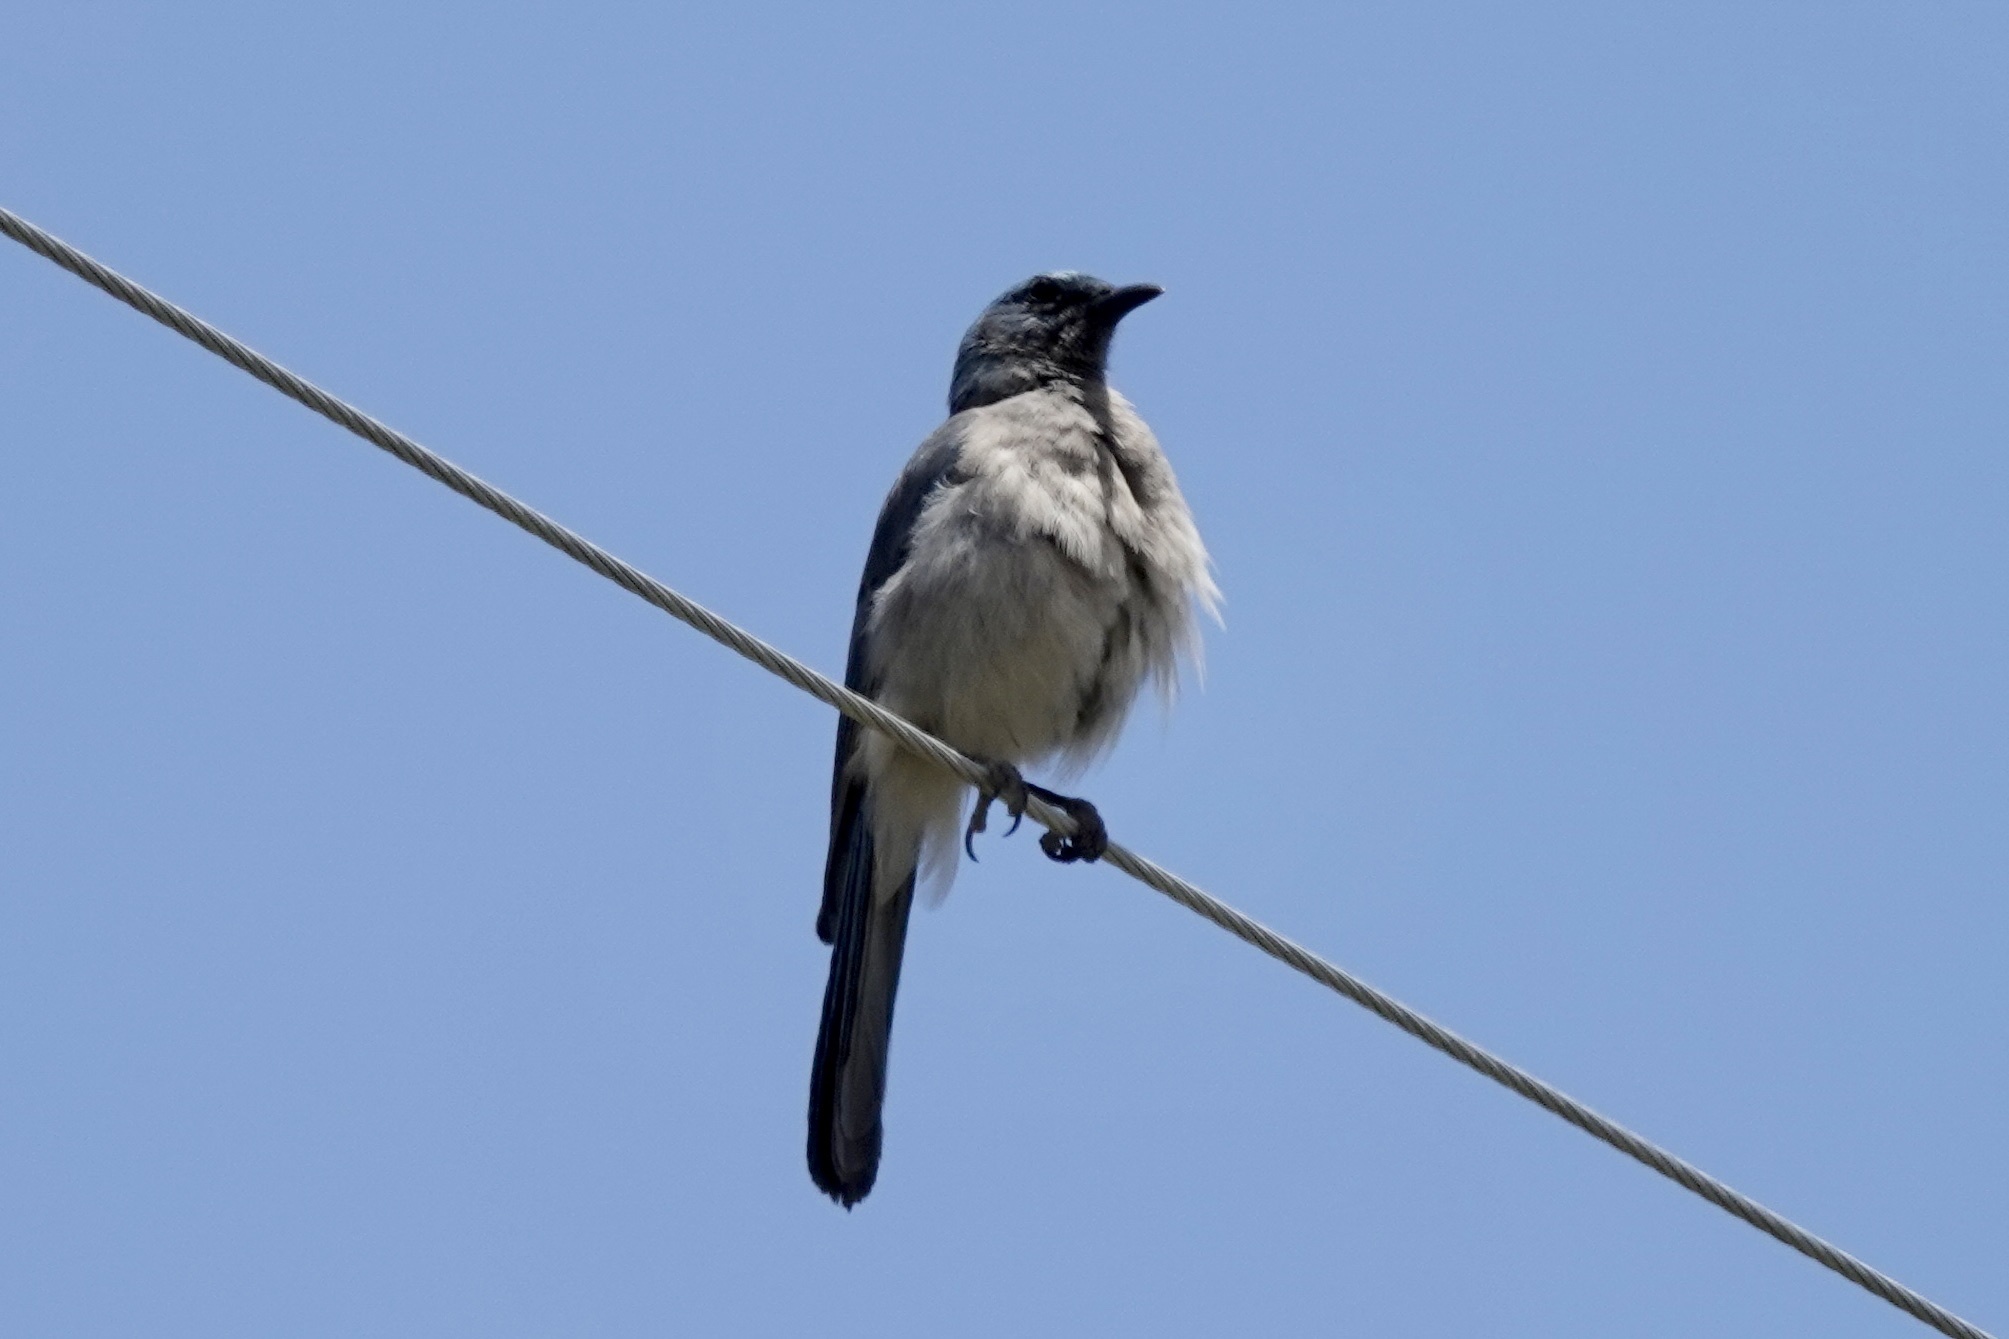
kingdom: Animalia
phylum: Chordata
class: Aves
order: Passeriformes
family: Corvidae
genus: Aphelocoma
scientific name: Aphelocoma wollweberi
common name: Mexican jay
